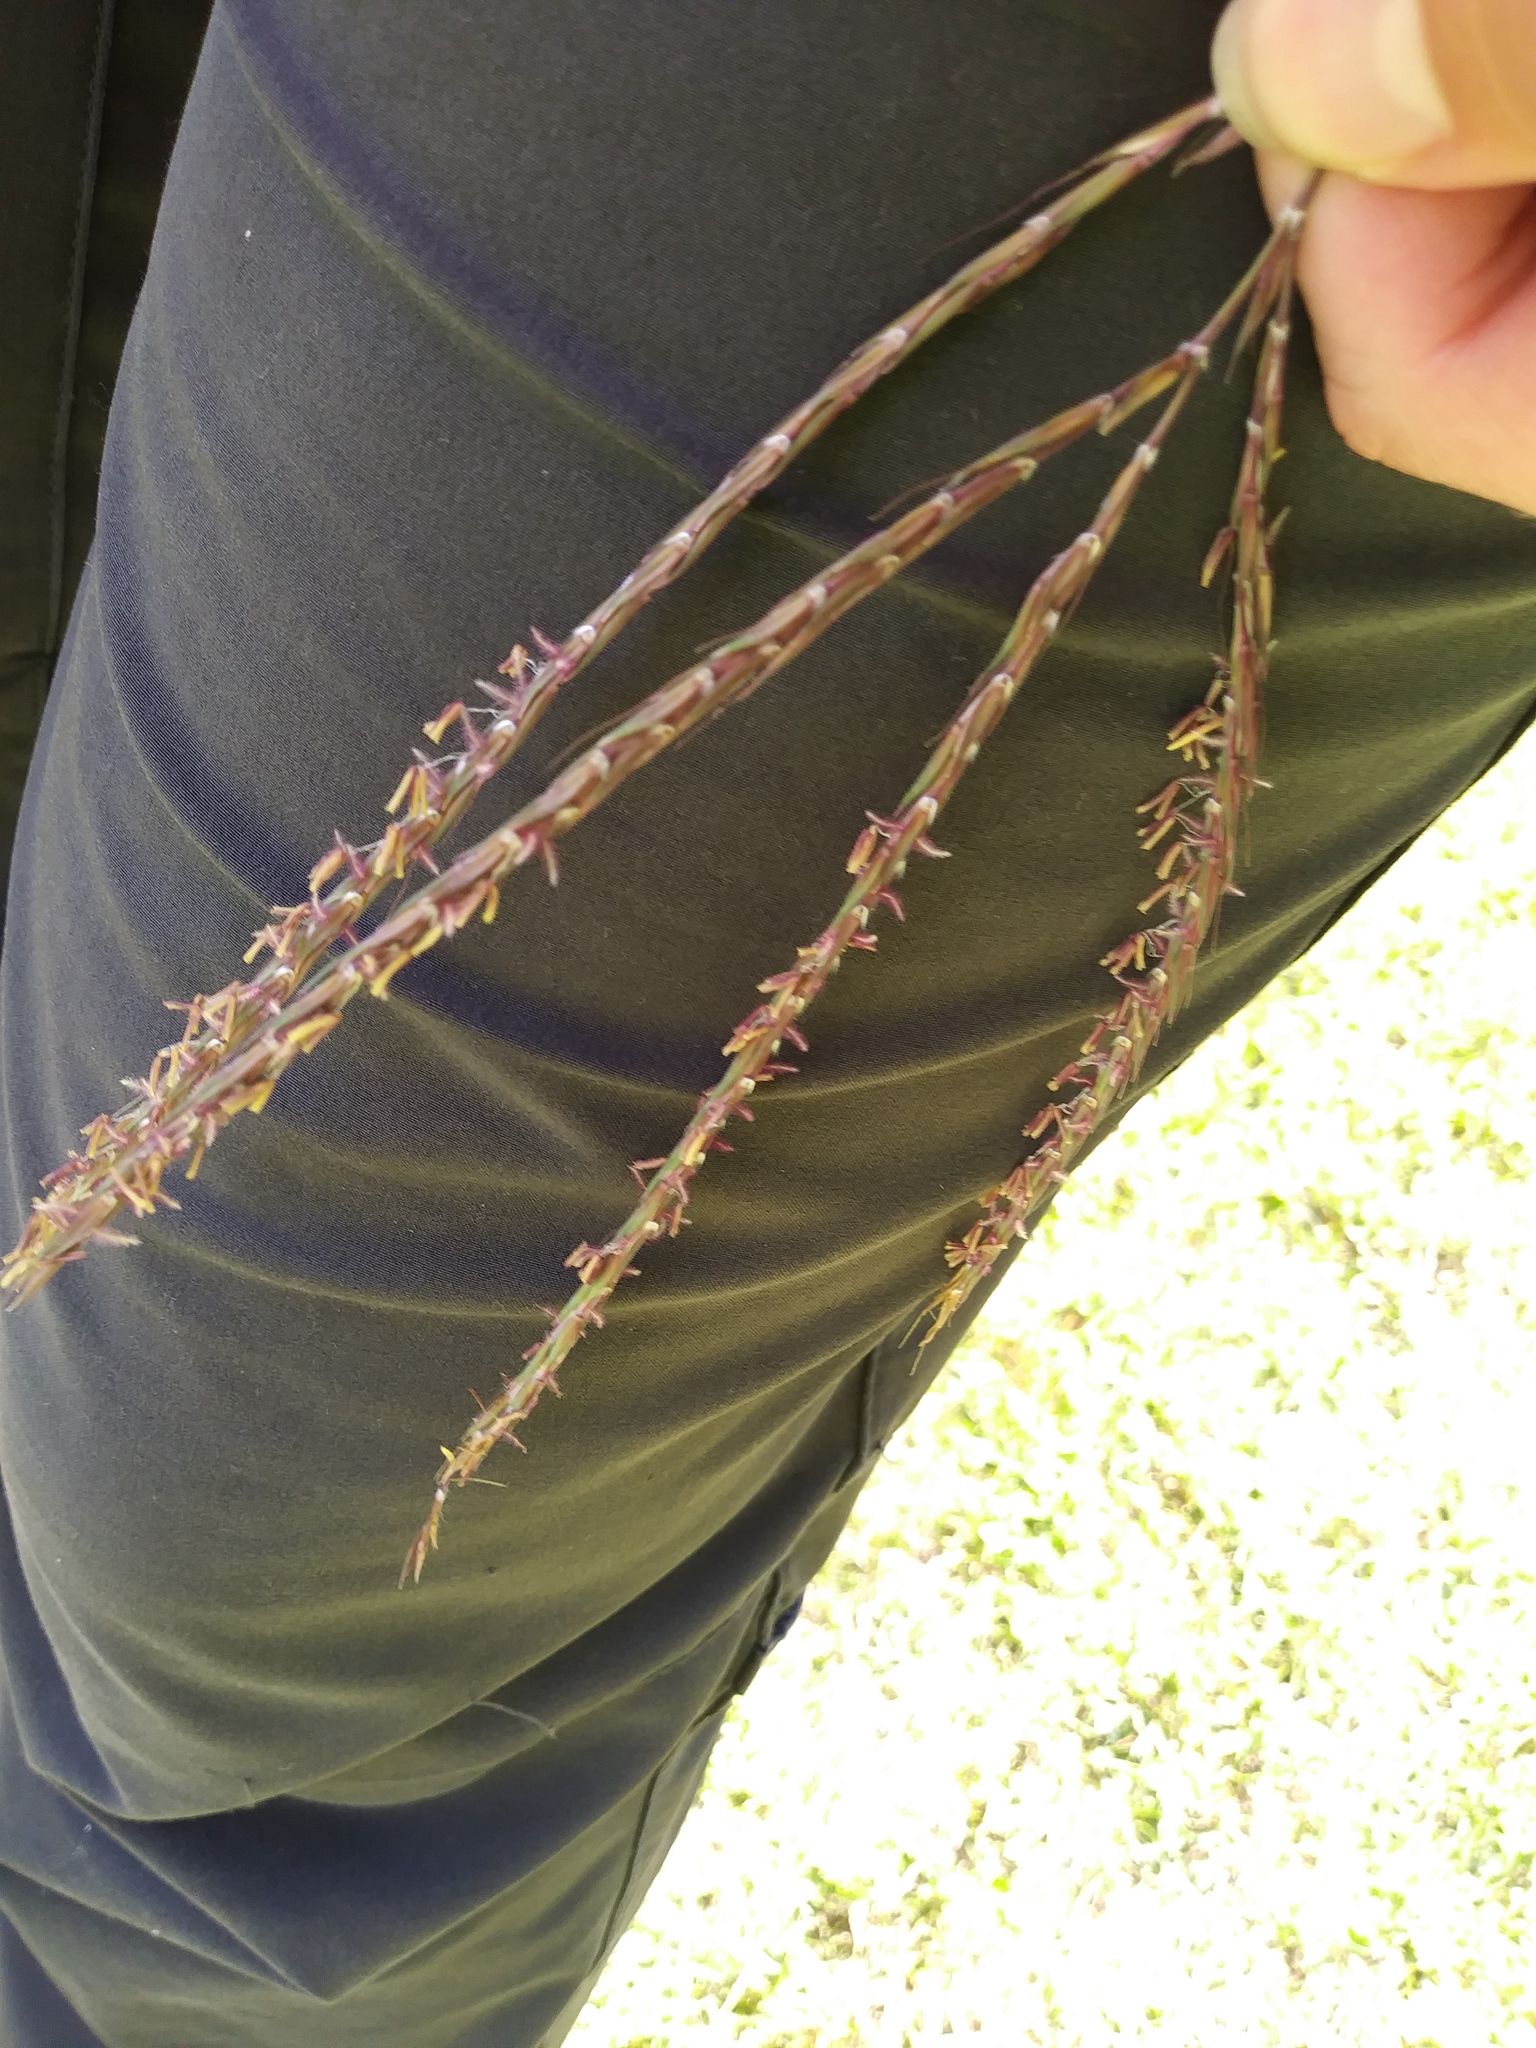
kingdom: Plantae
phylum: Tracheophyta
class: Liliopsida
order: Poales
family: Poaceae
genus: Andropogon
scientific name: Andropogon gerardi
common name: Big bluestem
